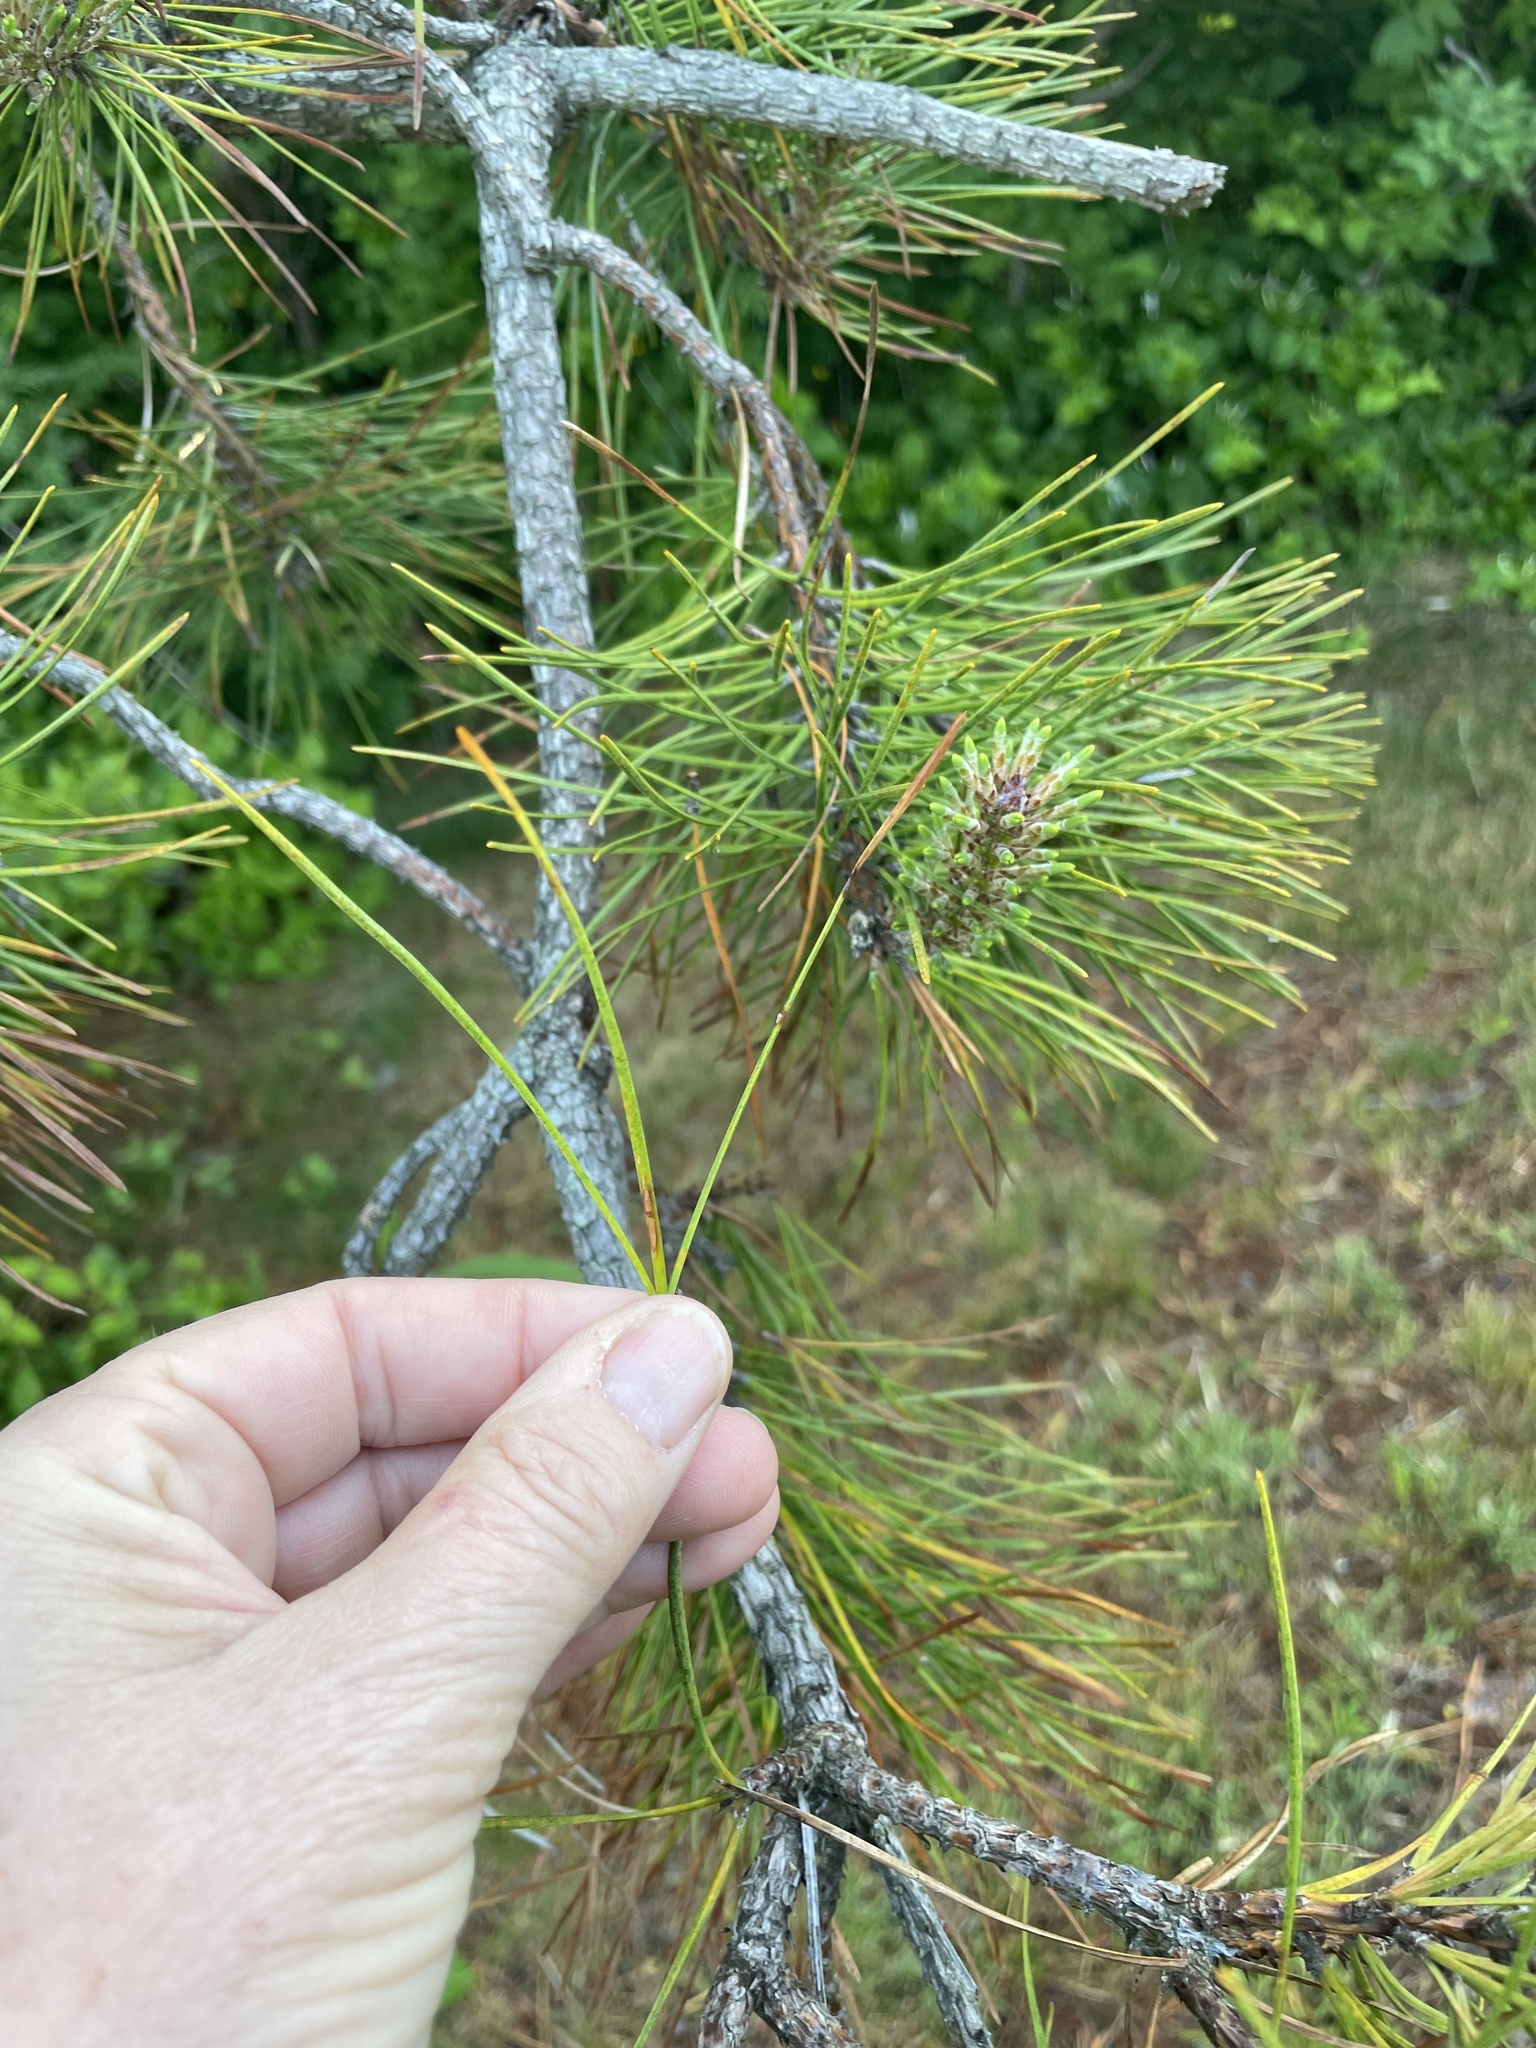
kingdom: Plantae
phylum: Tracheophyta
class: Pinopsida
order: Pinales
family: Pinaceae
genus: Pinus
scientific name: Pinus rigida
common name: Pitch pine
